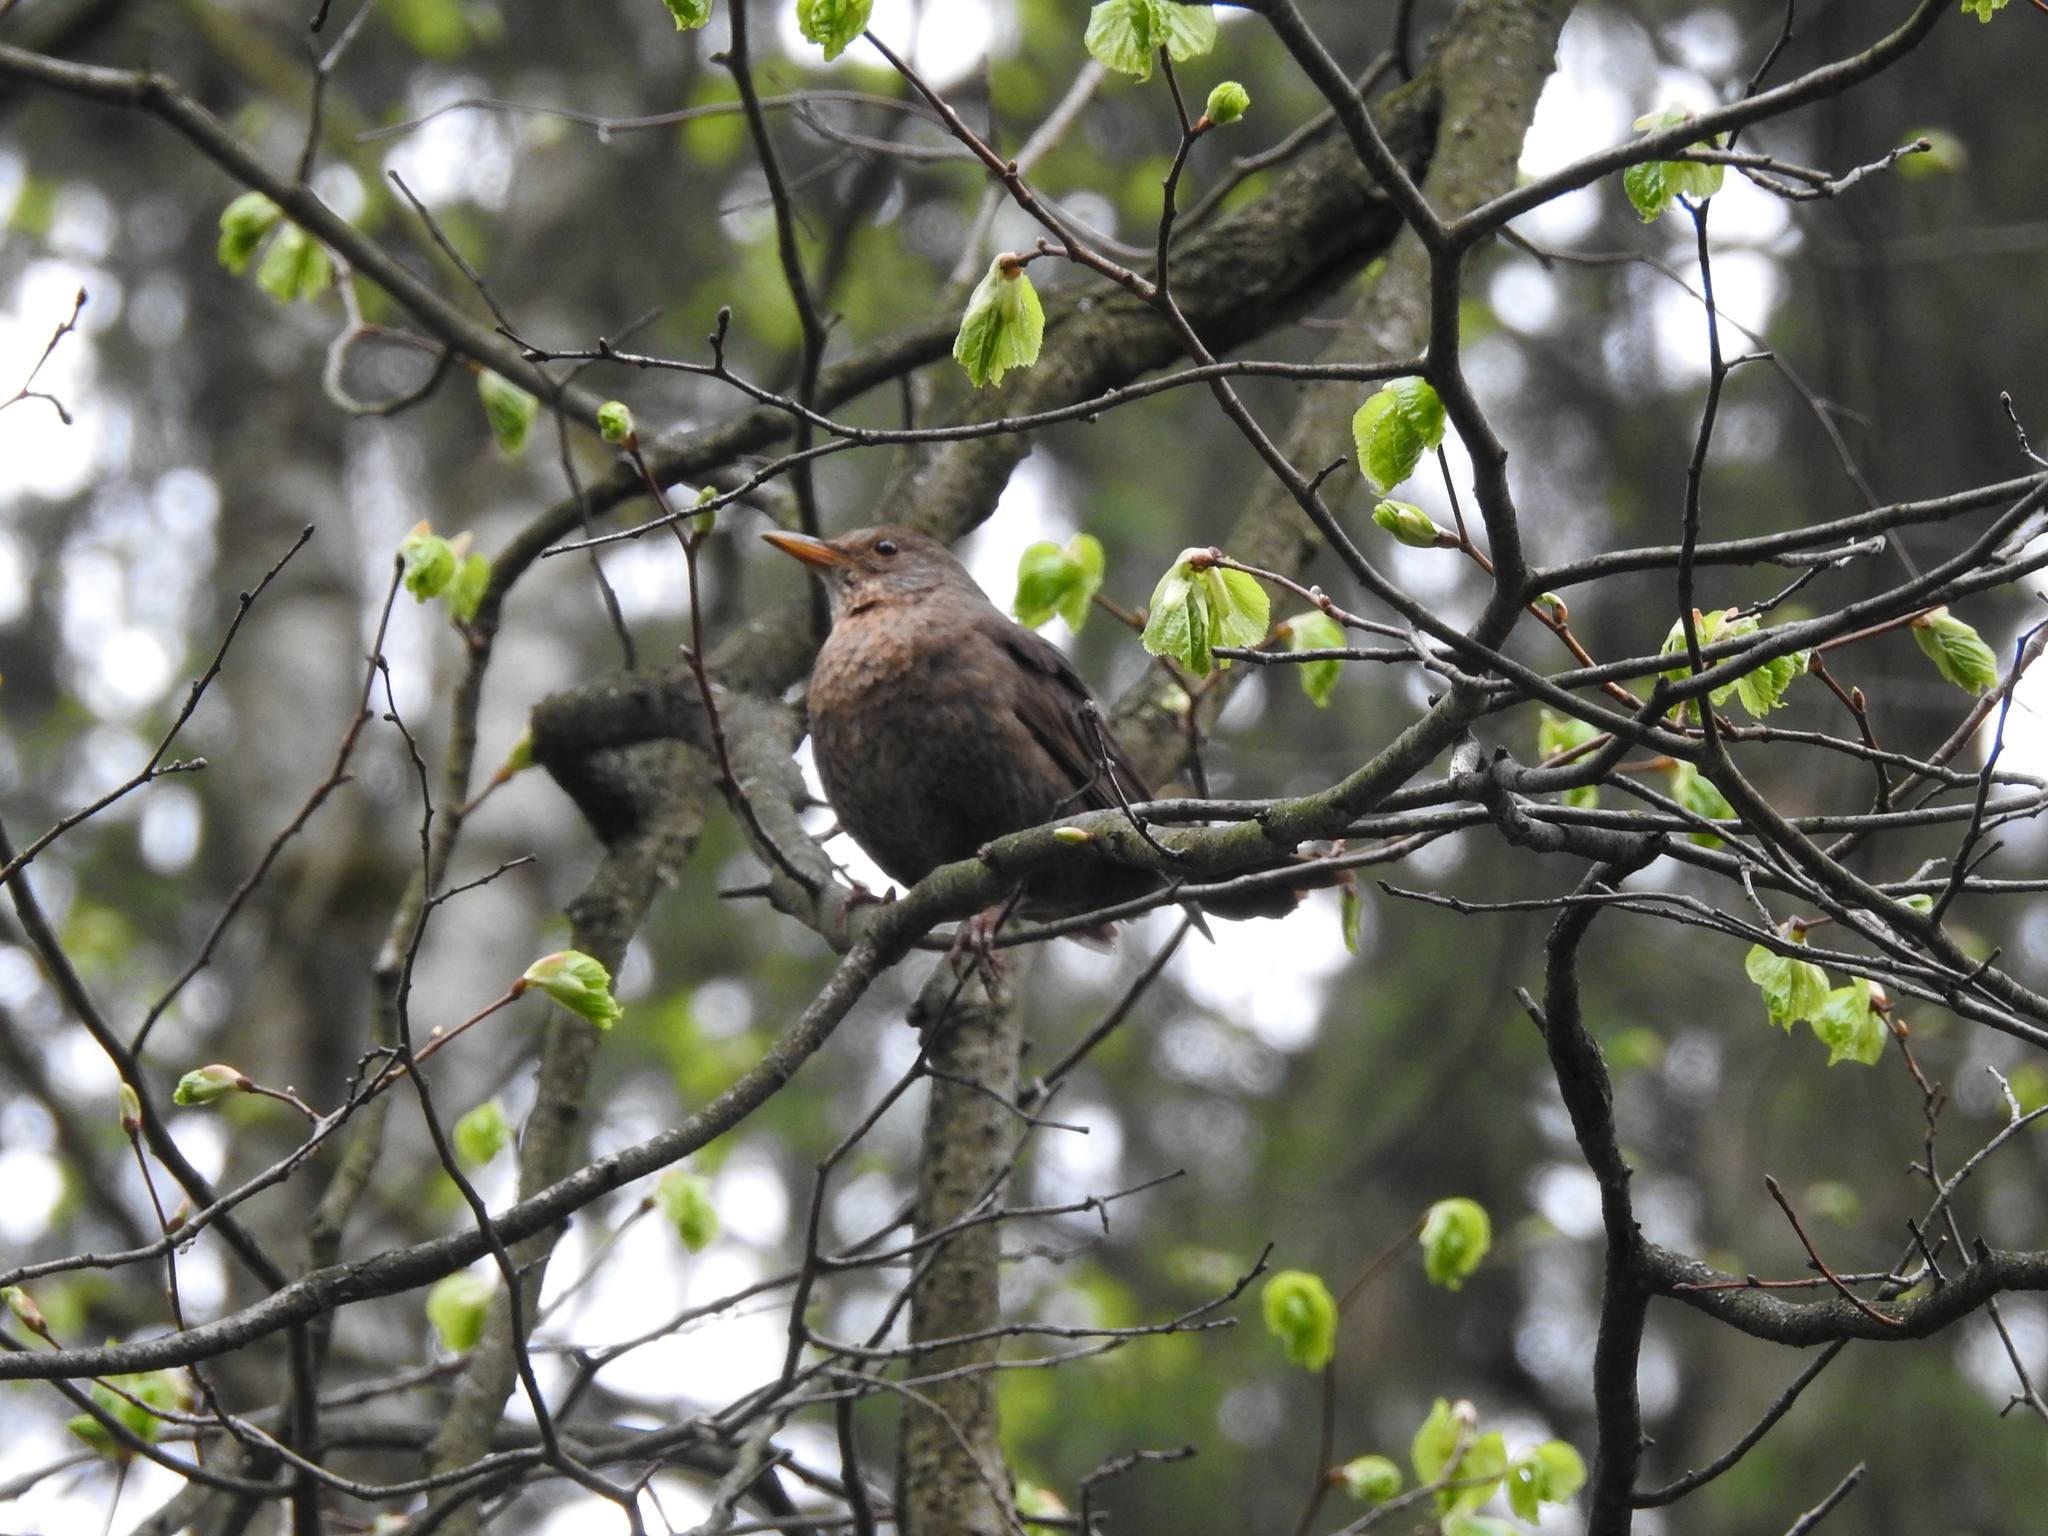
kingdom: Animalia
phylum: Chordata
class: Aves
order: Passeriformes
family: Turdidae
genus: Turdus
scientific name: Turdus merula
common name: Common blackbird
